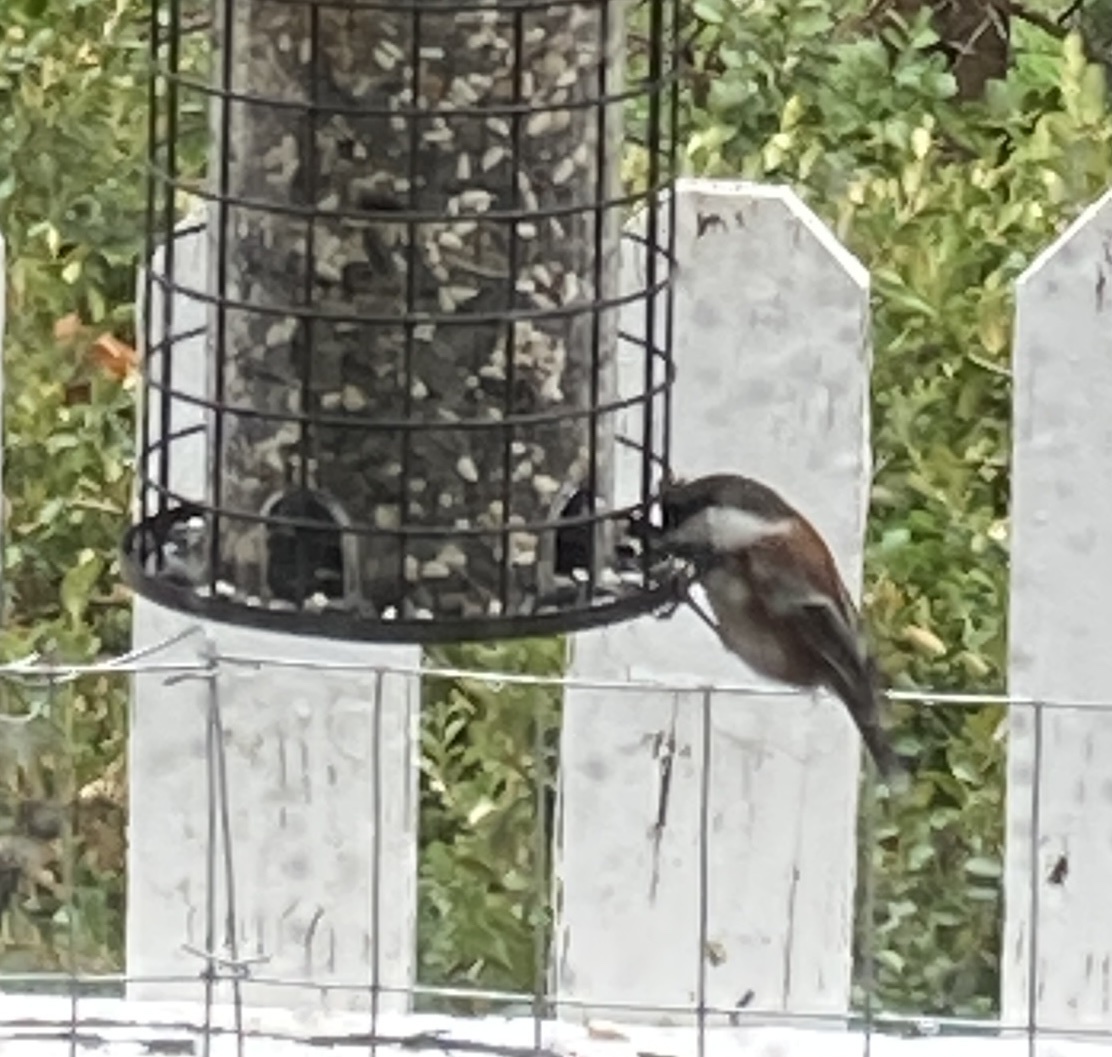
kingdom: Animalia
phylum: Chordata
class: Aves
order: Passeriformes
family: Paridae
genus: Poecile
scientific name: Poecile rufescens
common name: Chestnut-backed chickadee
